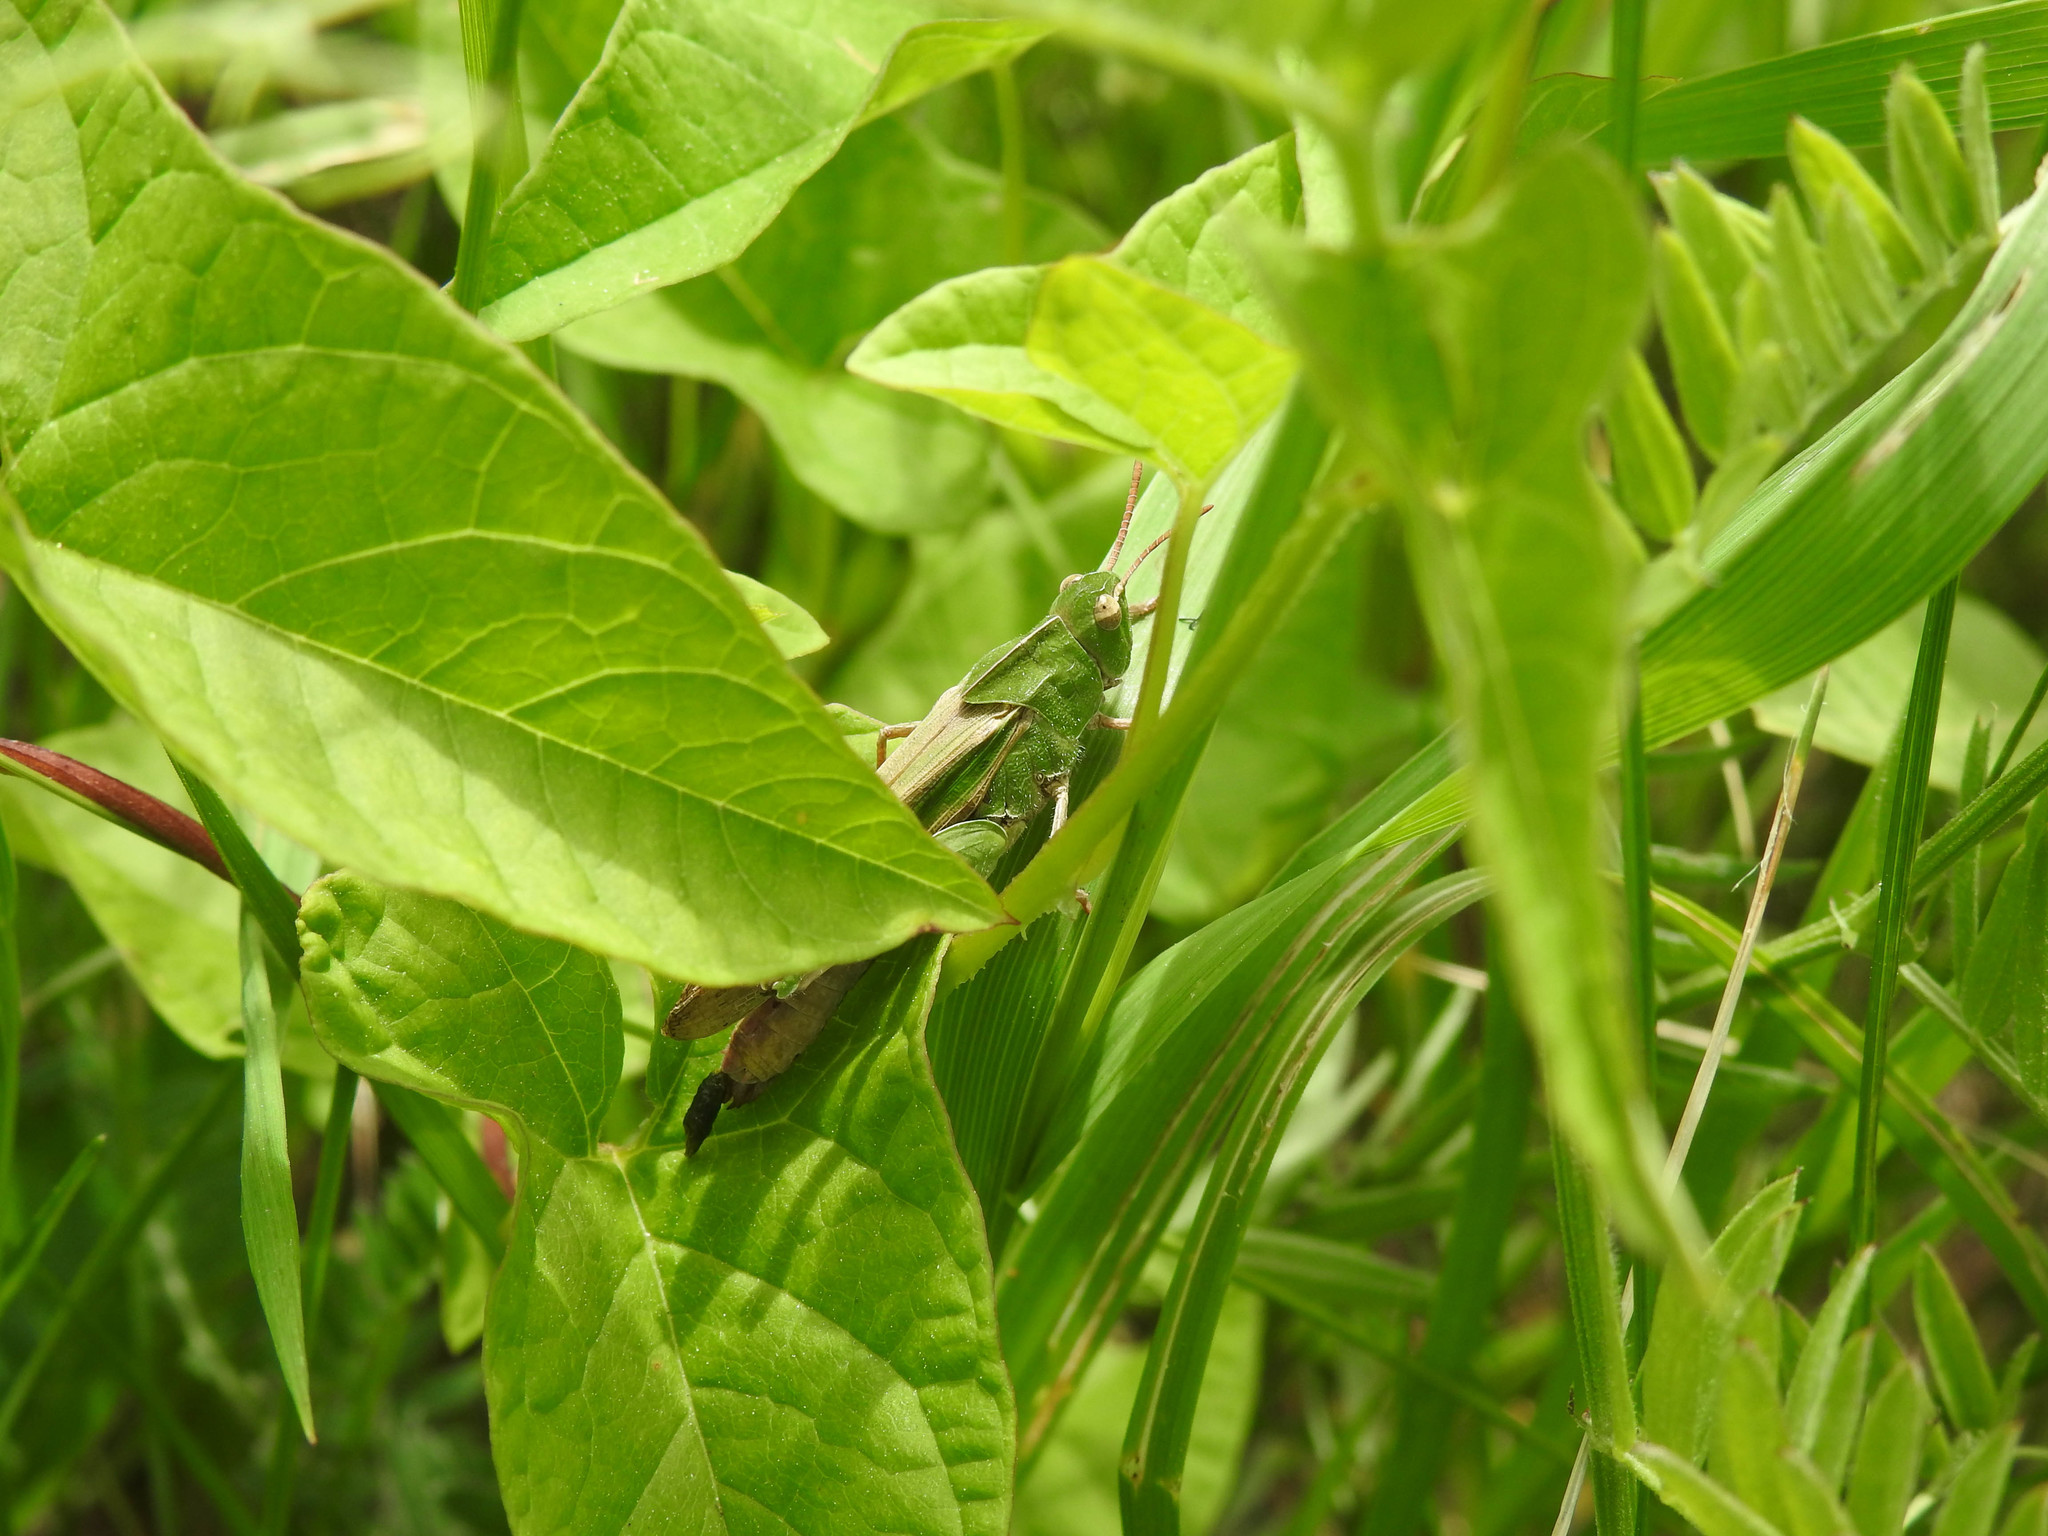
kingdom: Animalia
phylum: Arthropoda
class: Insecta
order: Orthoptera
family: Acrididae
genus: Chortophaga
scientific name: Chortophaga viridifasciata
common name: Green-striped grasshopper
